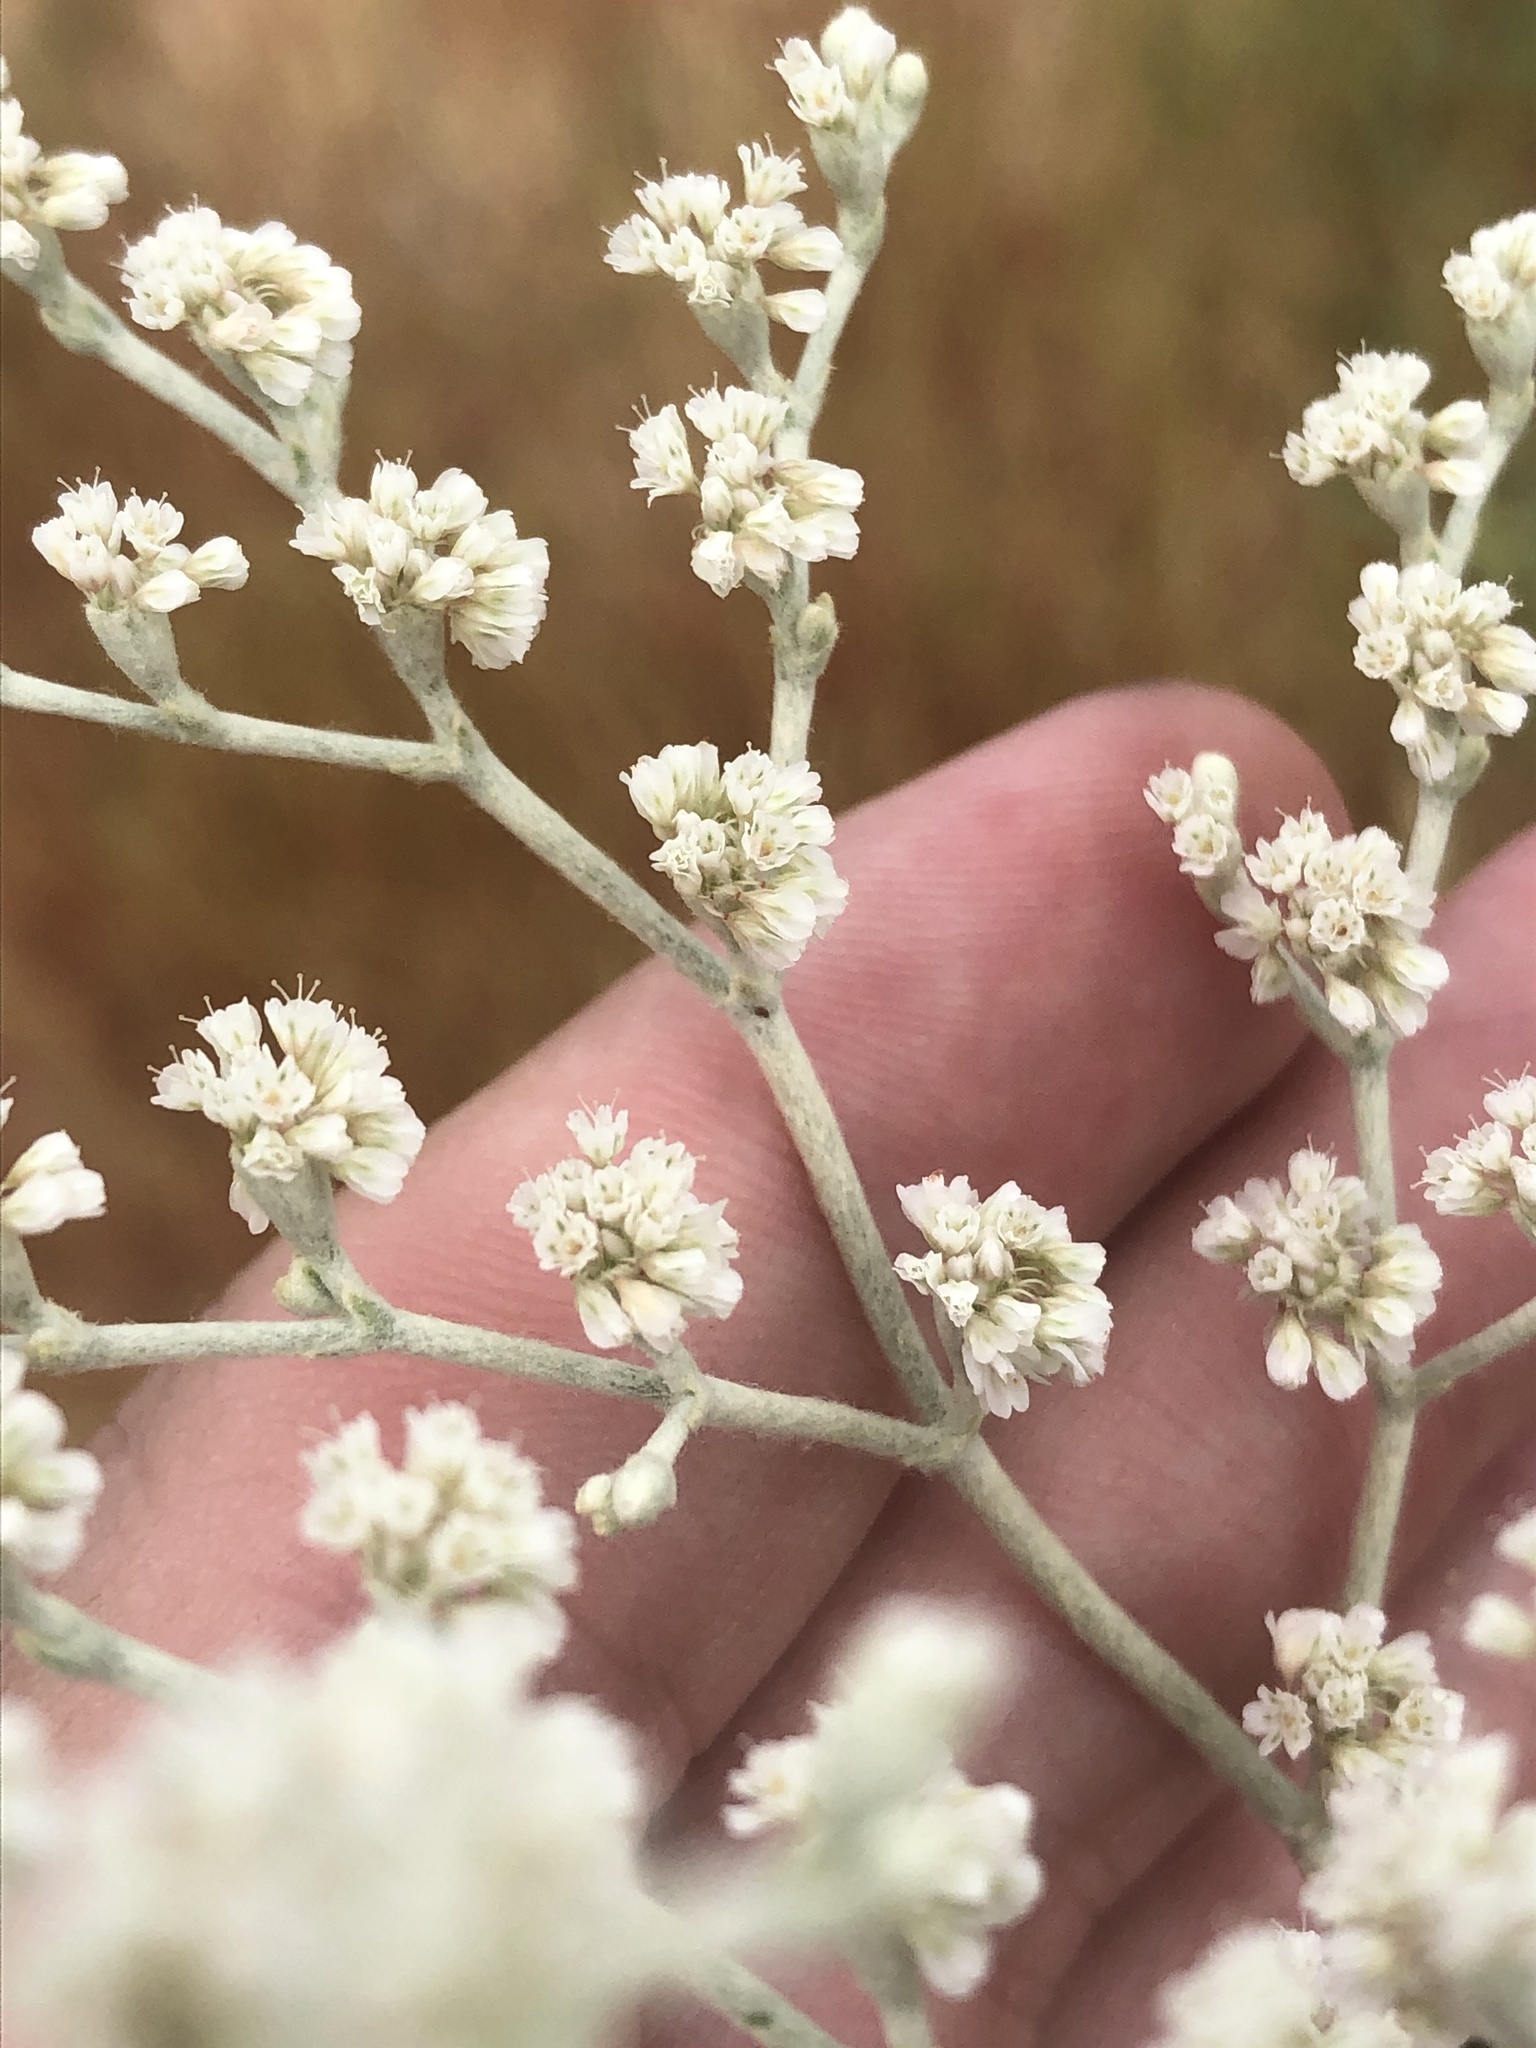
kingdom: Plantae
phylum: Tracheophyta
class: Magnoliopsida
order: Caryophyllales
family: Polygonaceae
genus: Eriogonum
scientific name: Eriogonum annuum
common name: Annual wild buckwheat
